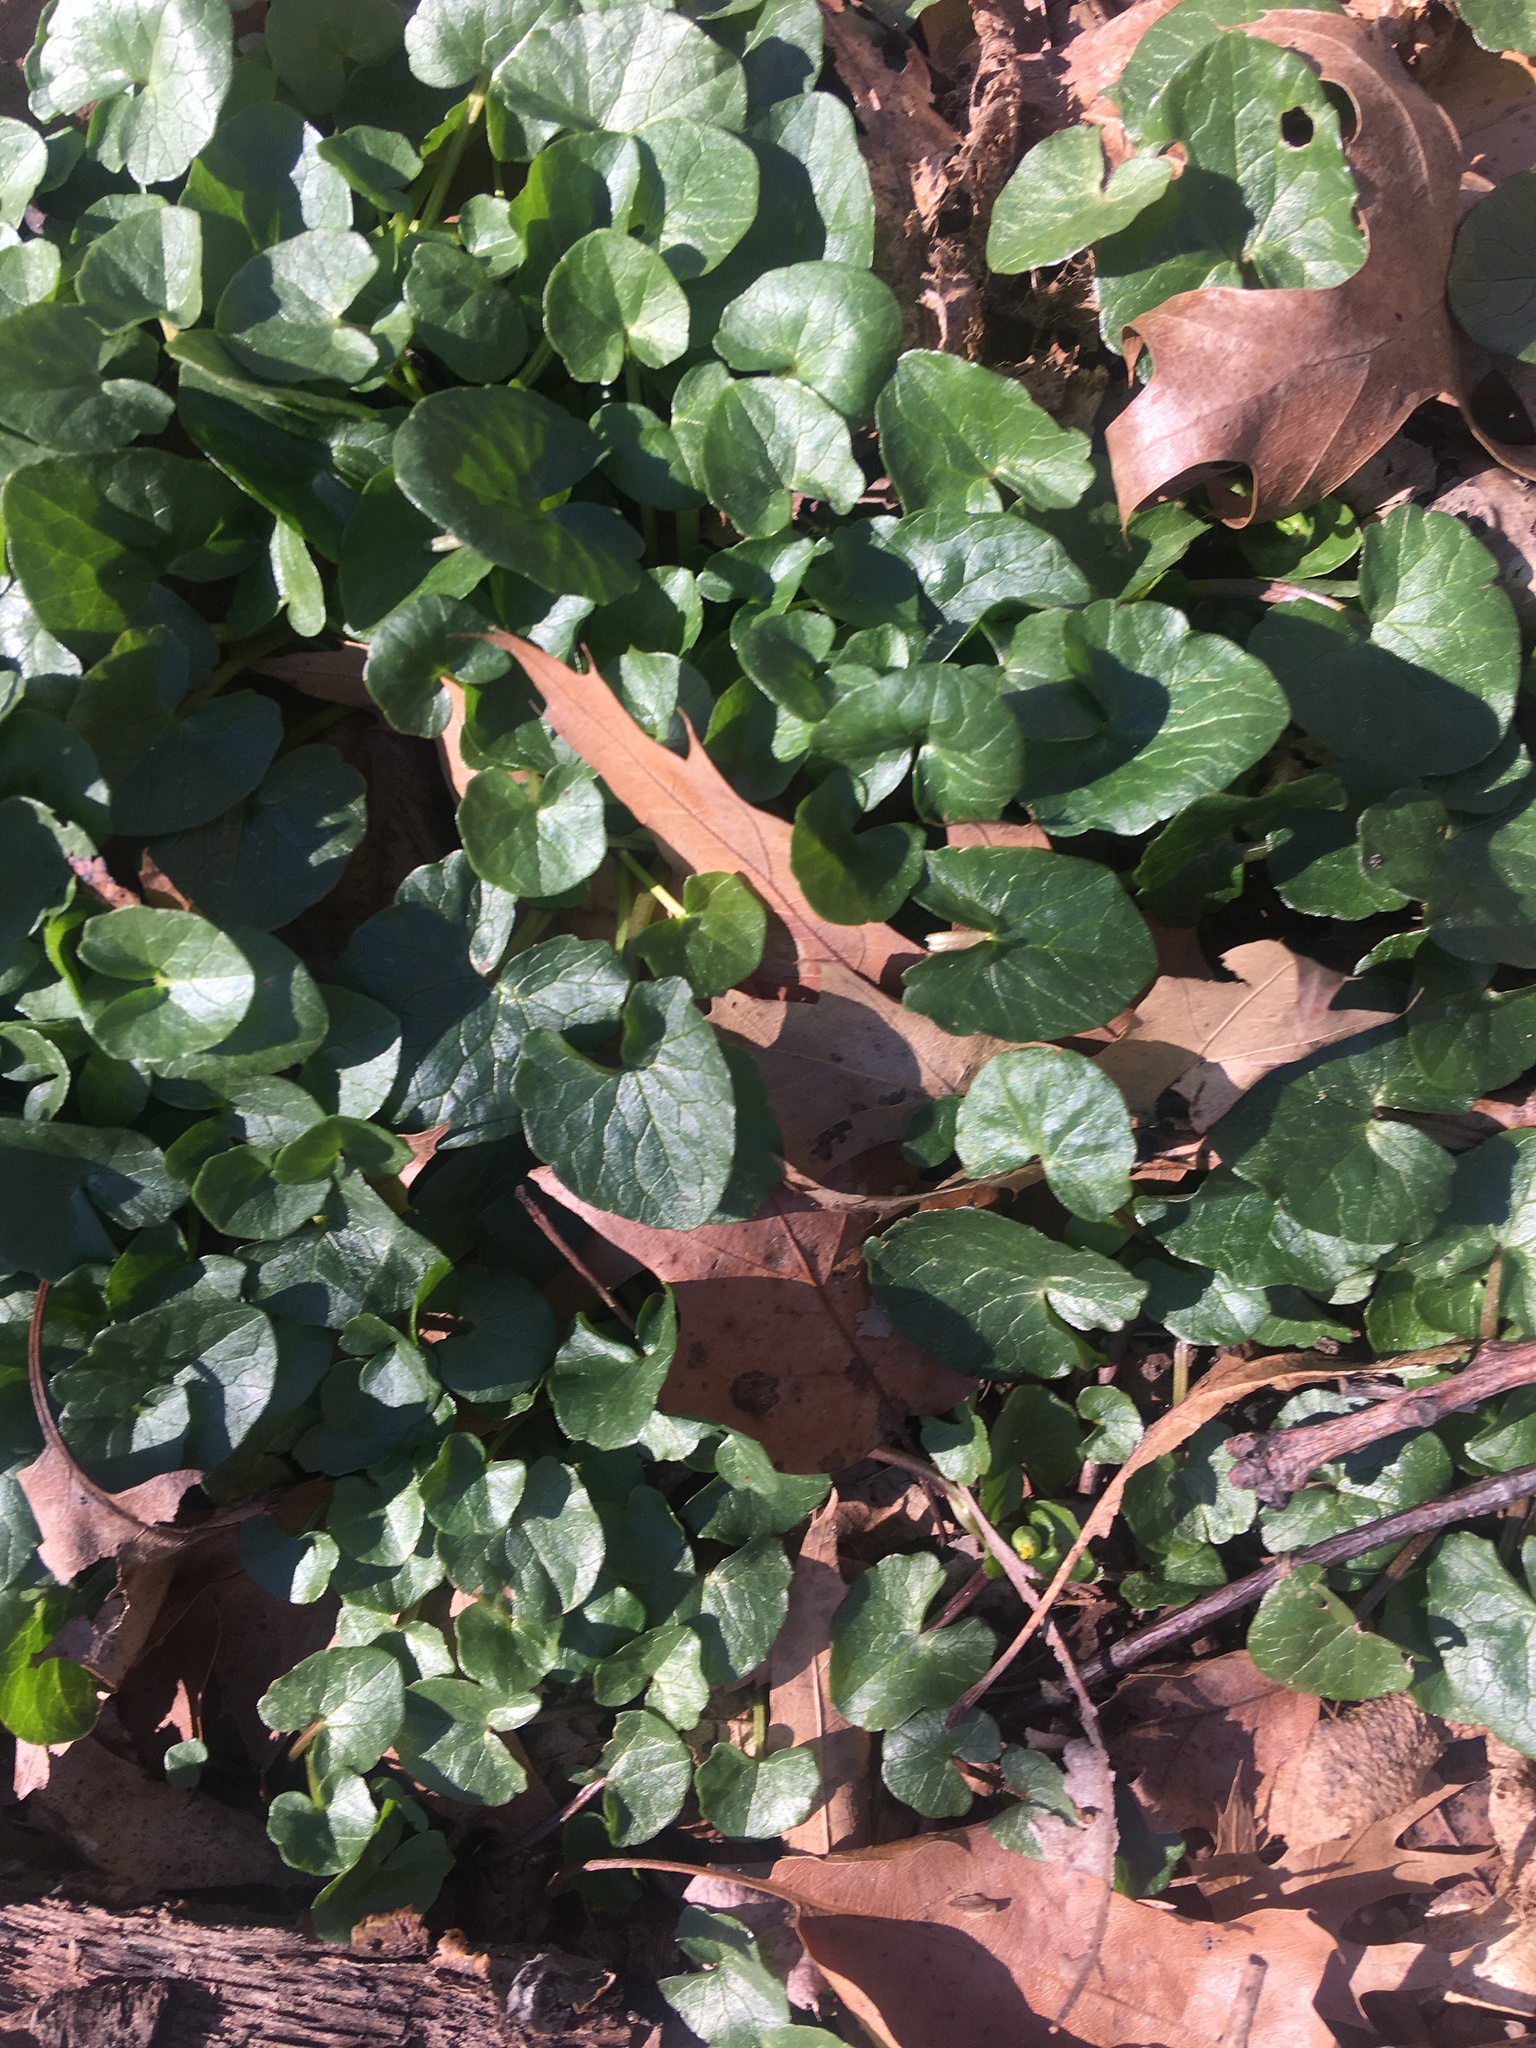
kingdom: Plantae
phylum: Tracheophyta
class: Magnoliopsida
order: Ranunculales
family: Ranunculaceae
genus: Ficaria
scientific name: Ficaria verna
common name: Lesser celandine
